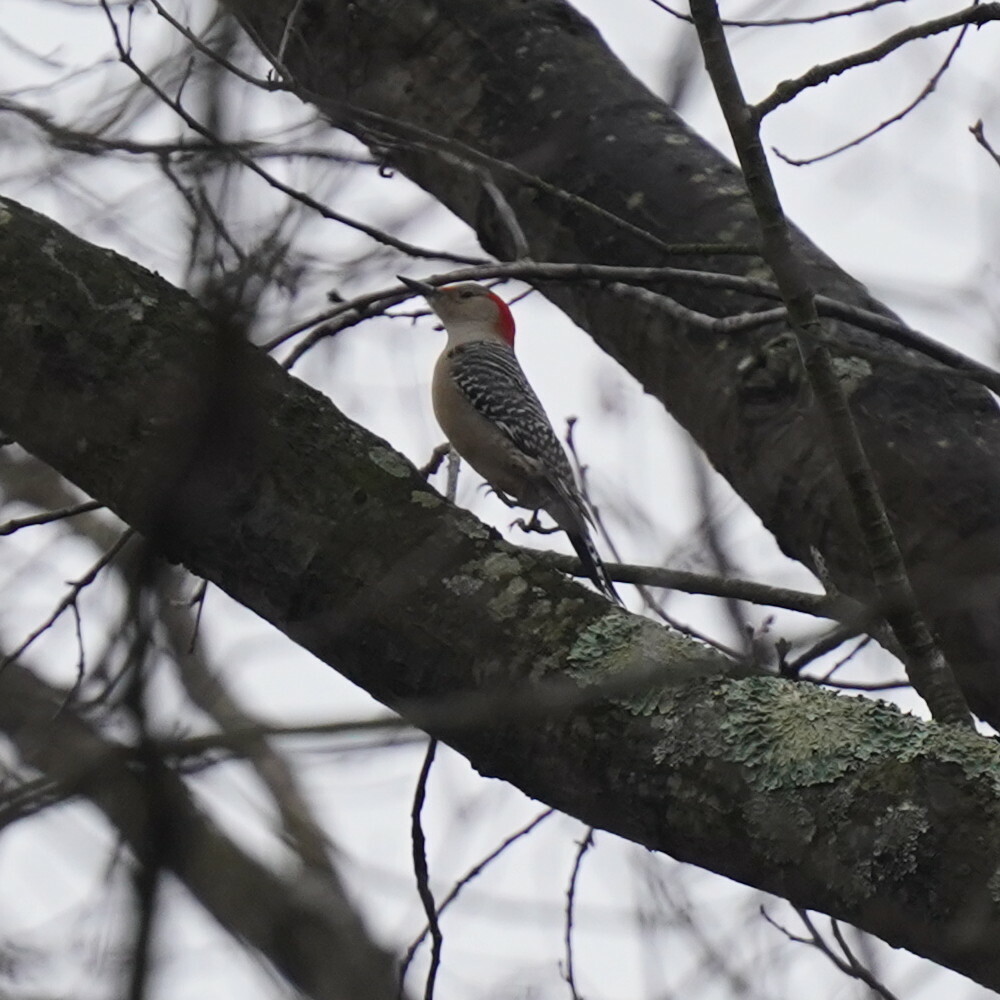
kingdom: Animalia
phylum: Chordata
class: Aves
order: Piciformes
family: Picidae
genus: Melanerpes
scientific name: Melanerpes carolinus
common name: Red-bellied woodpecker
